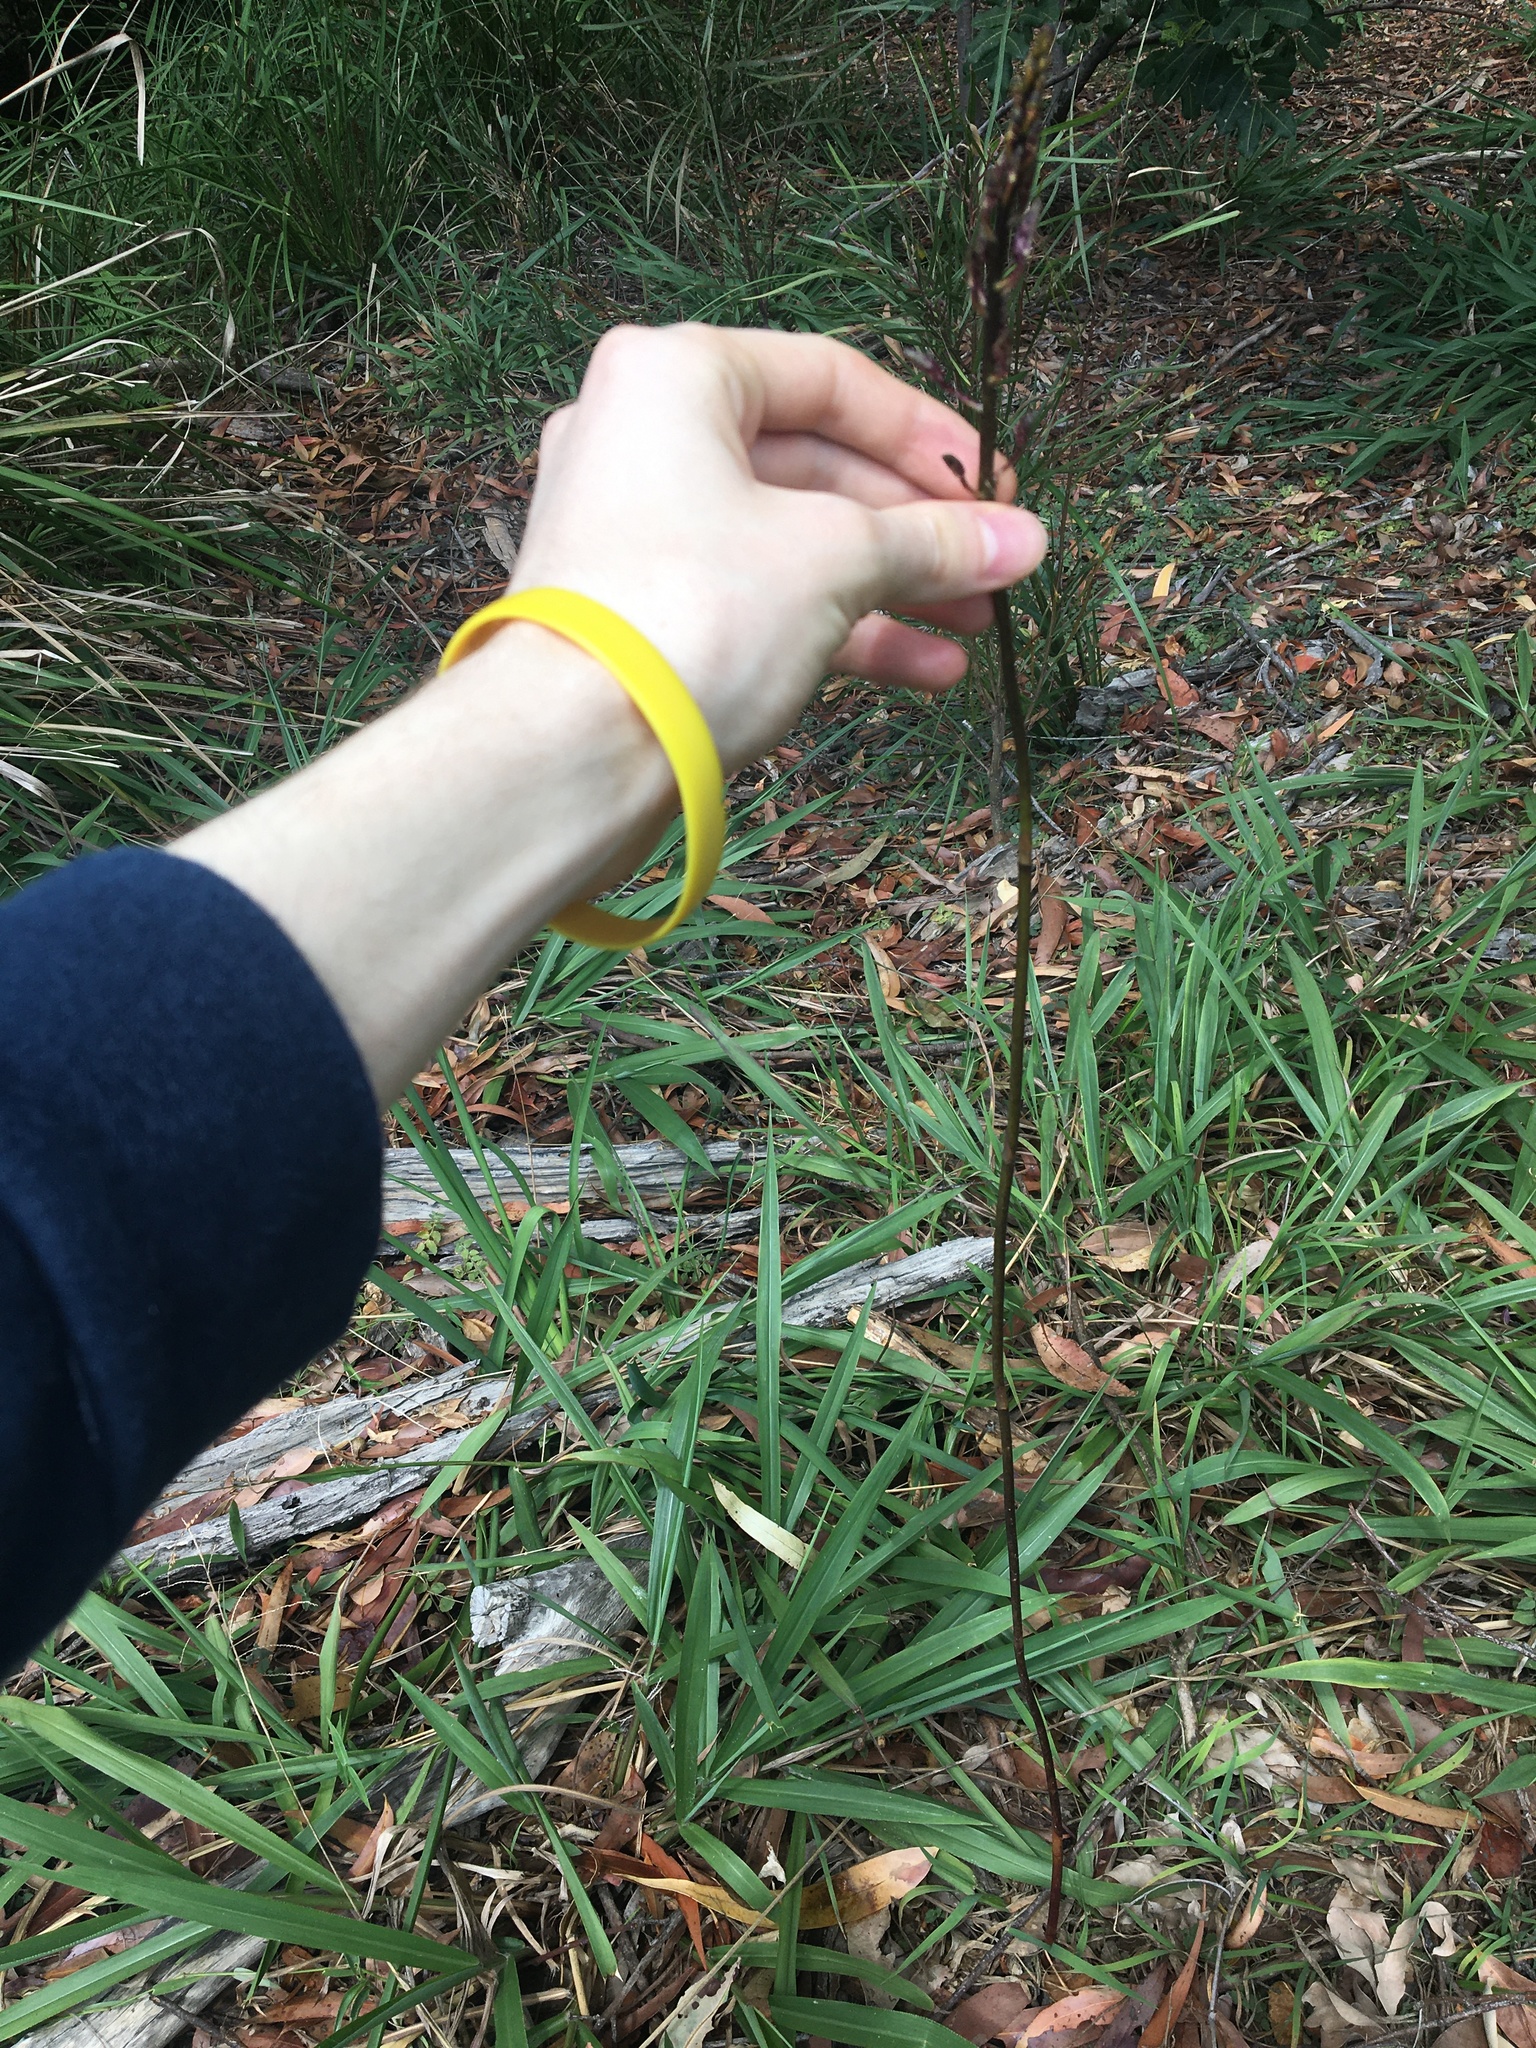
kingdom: Plantae
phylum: Tracheophyta
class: Liliopsida
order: Asparagales
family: Orchidaceae
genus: Dipodium
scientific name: Dipodium variegatum
